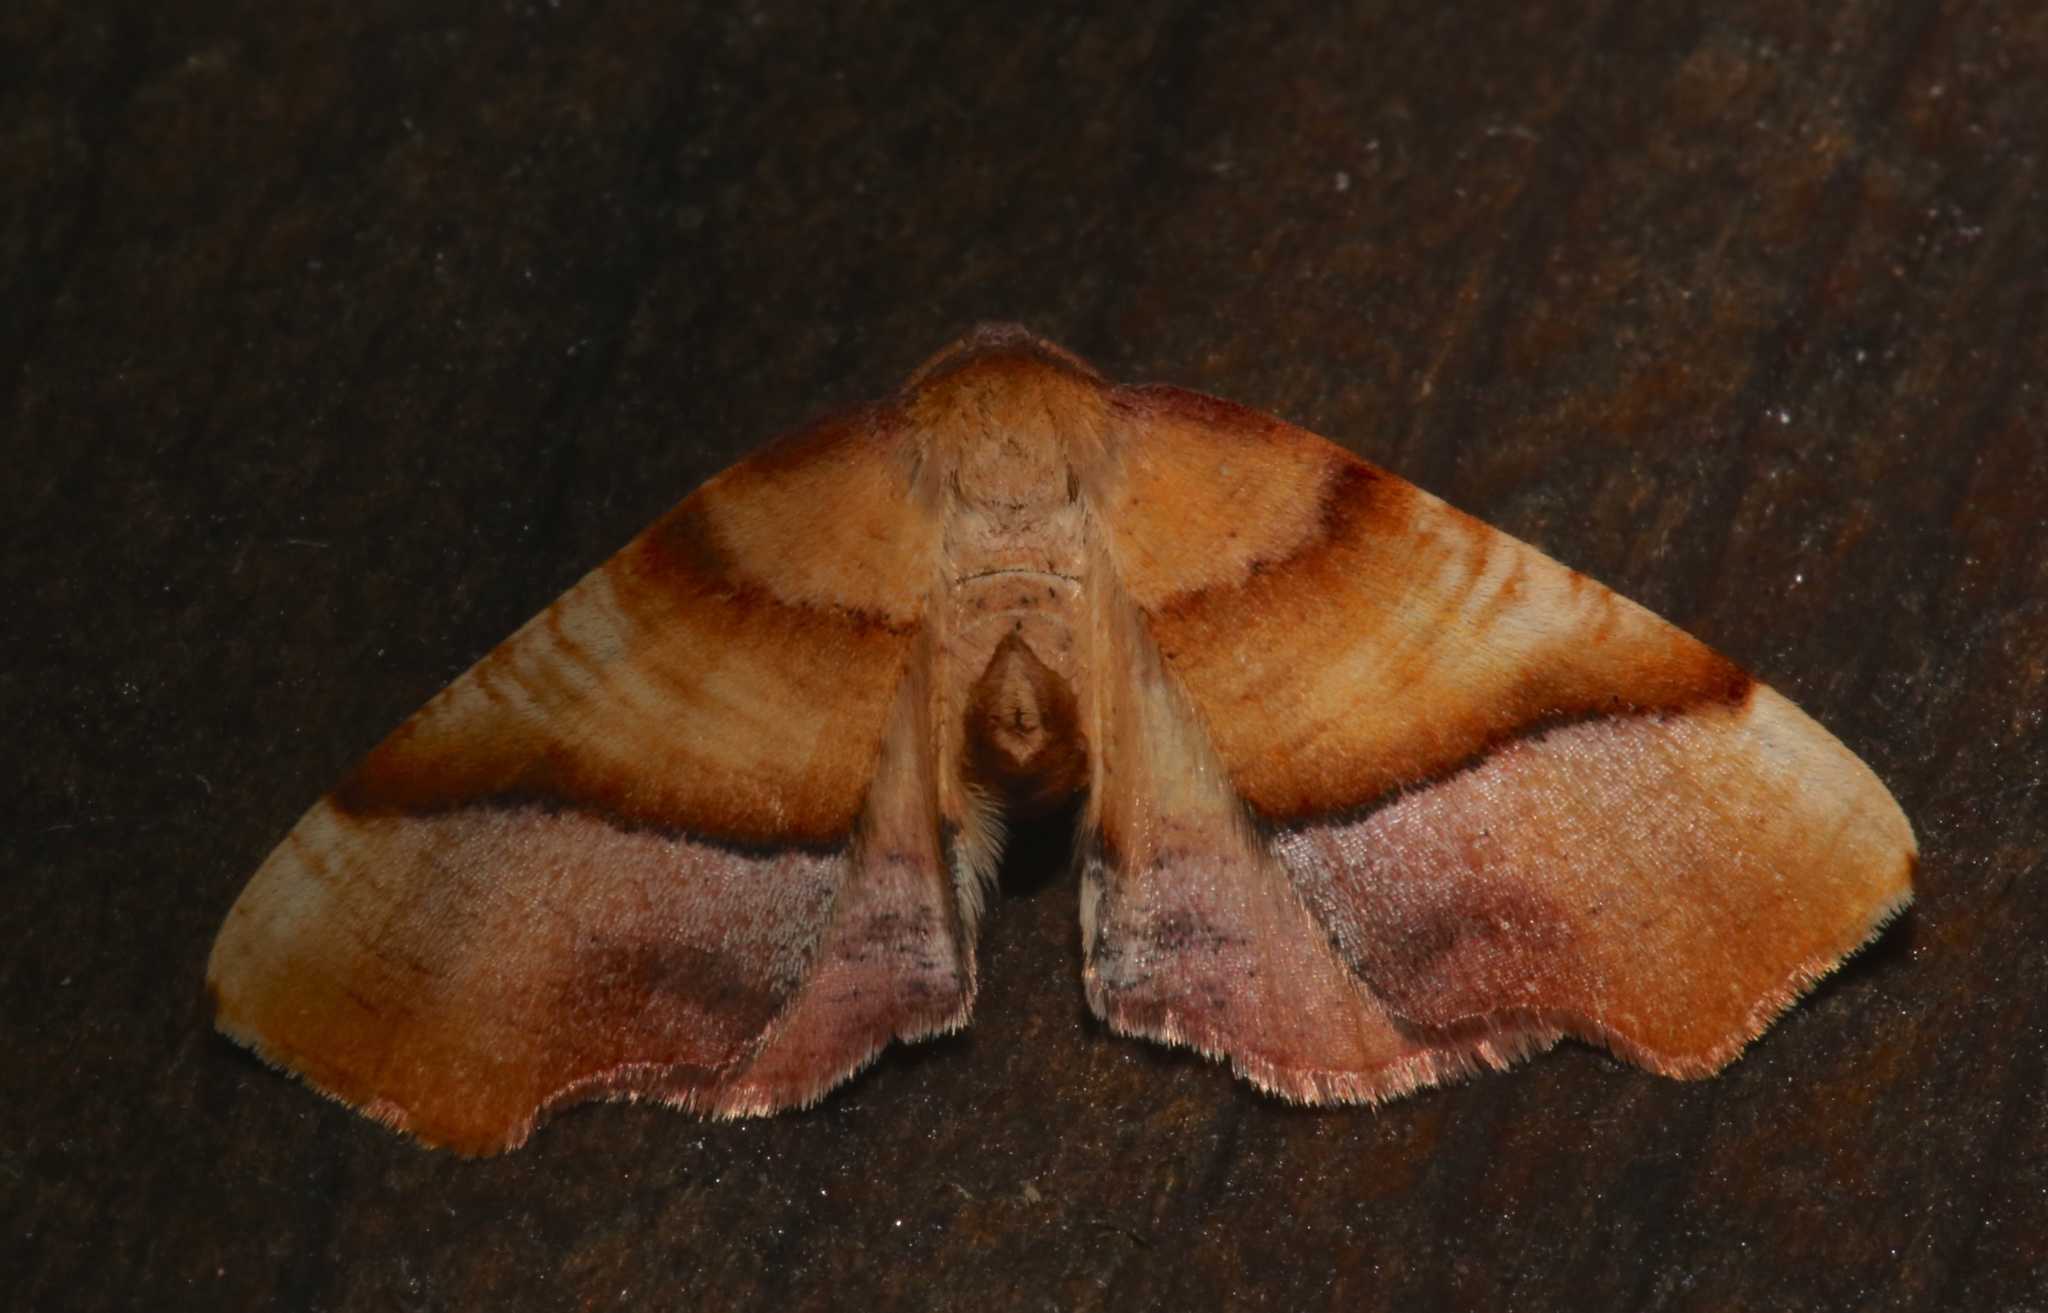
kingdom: Animalia
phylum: Arthropoda
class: Insecta
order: Lepidoptera
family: Geometridae
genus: Plagodis
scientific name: Plagodis phlogosaria
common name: Straight-lined plagodis
